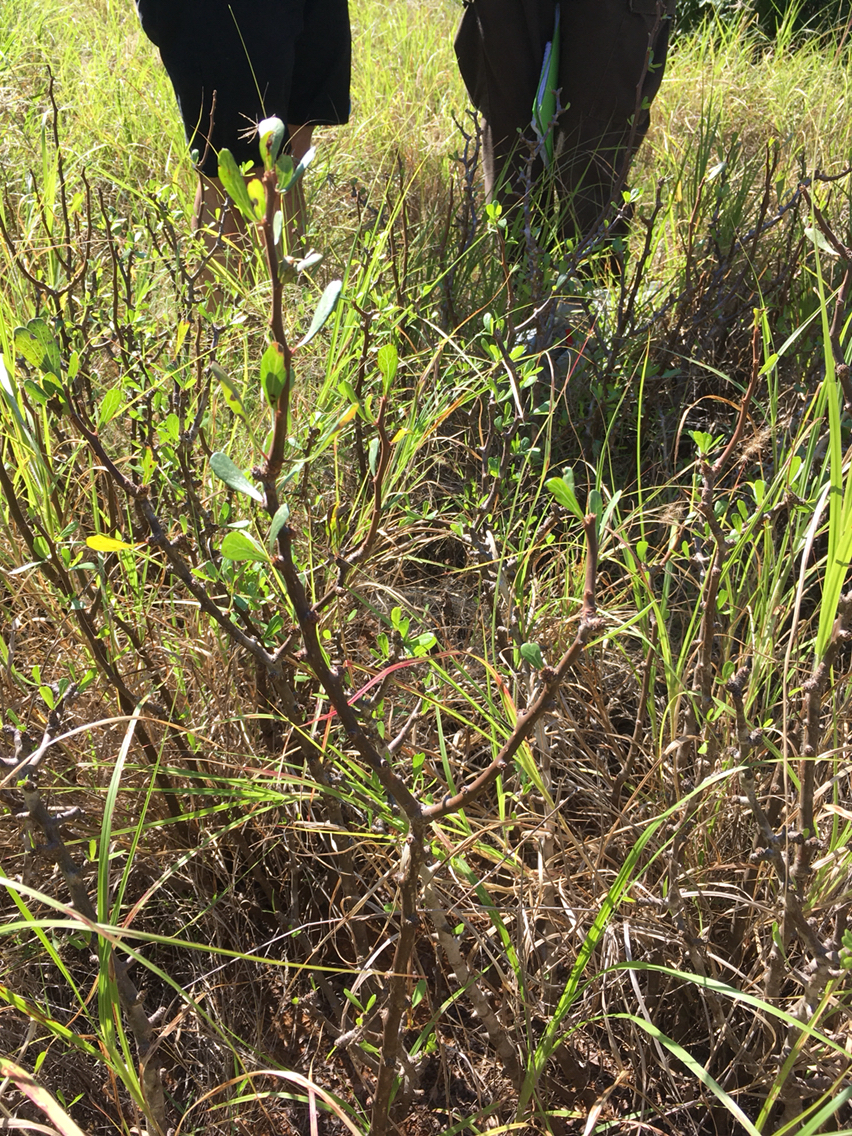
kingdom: Plantae
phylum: Tracheophyta
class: Magnoliopsida
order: Malpighiales
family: Euphorbiaceae
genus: Jatropha
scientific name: Jatropha dioica
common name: Leatherstem
